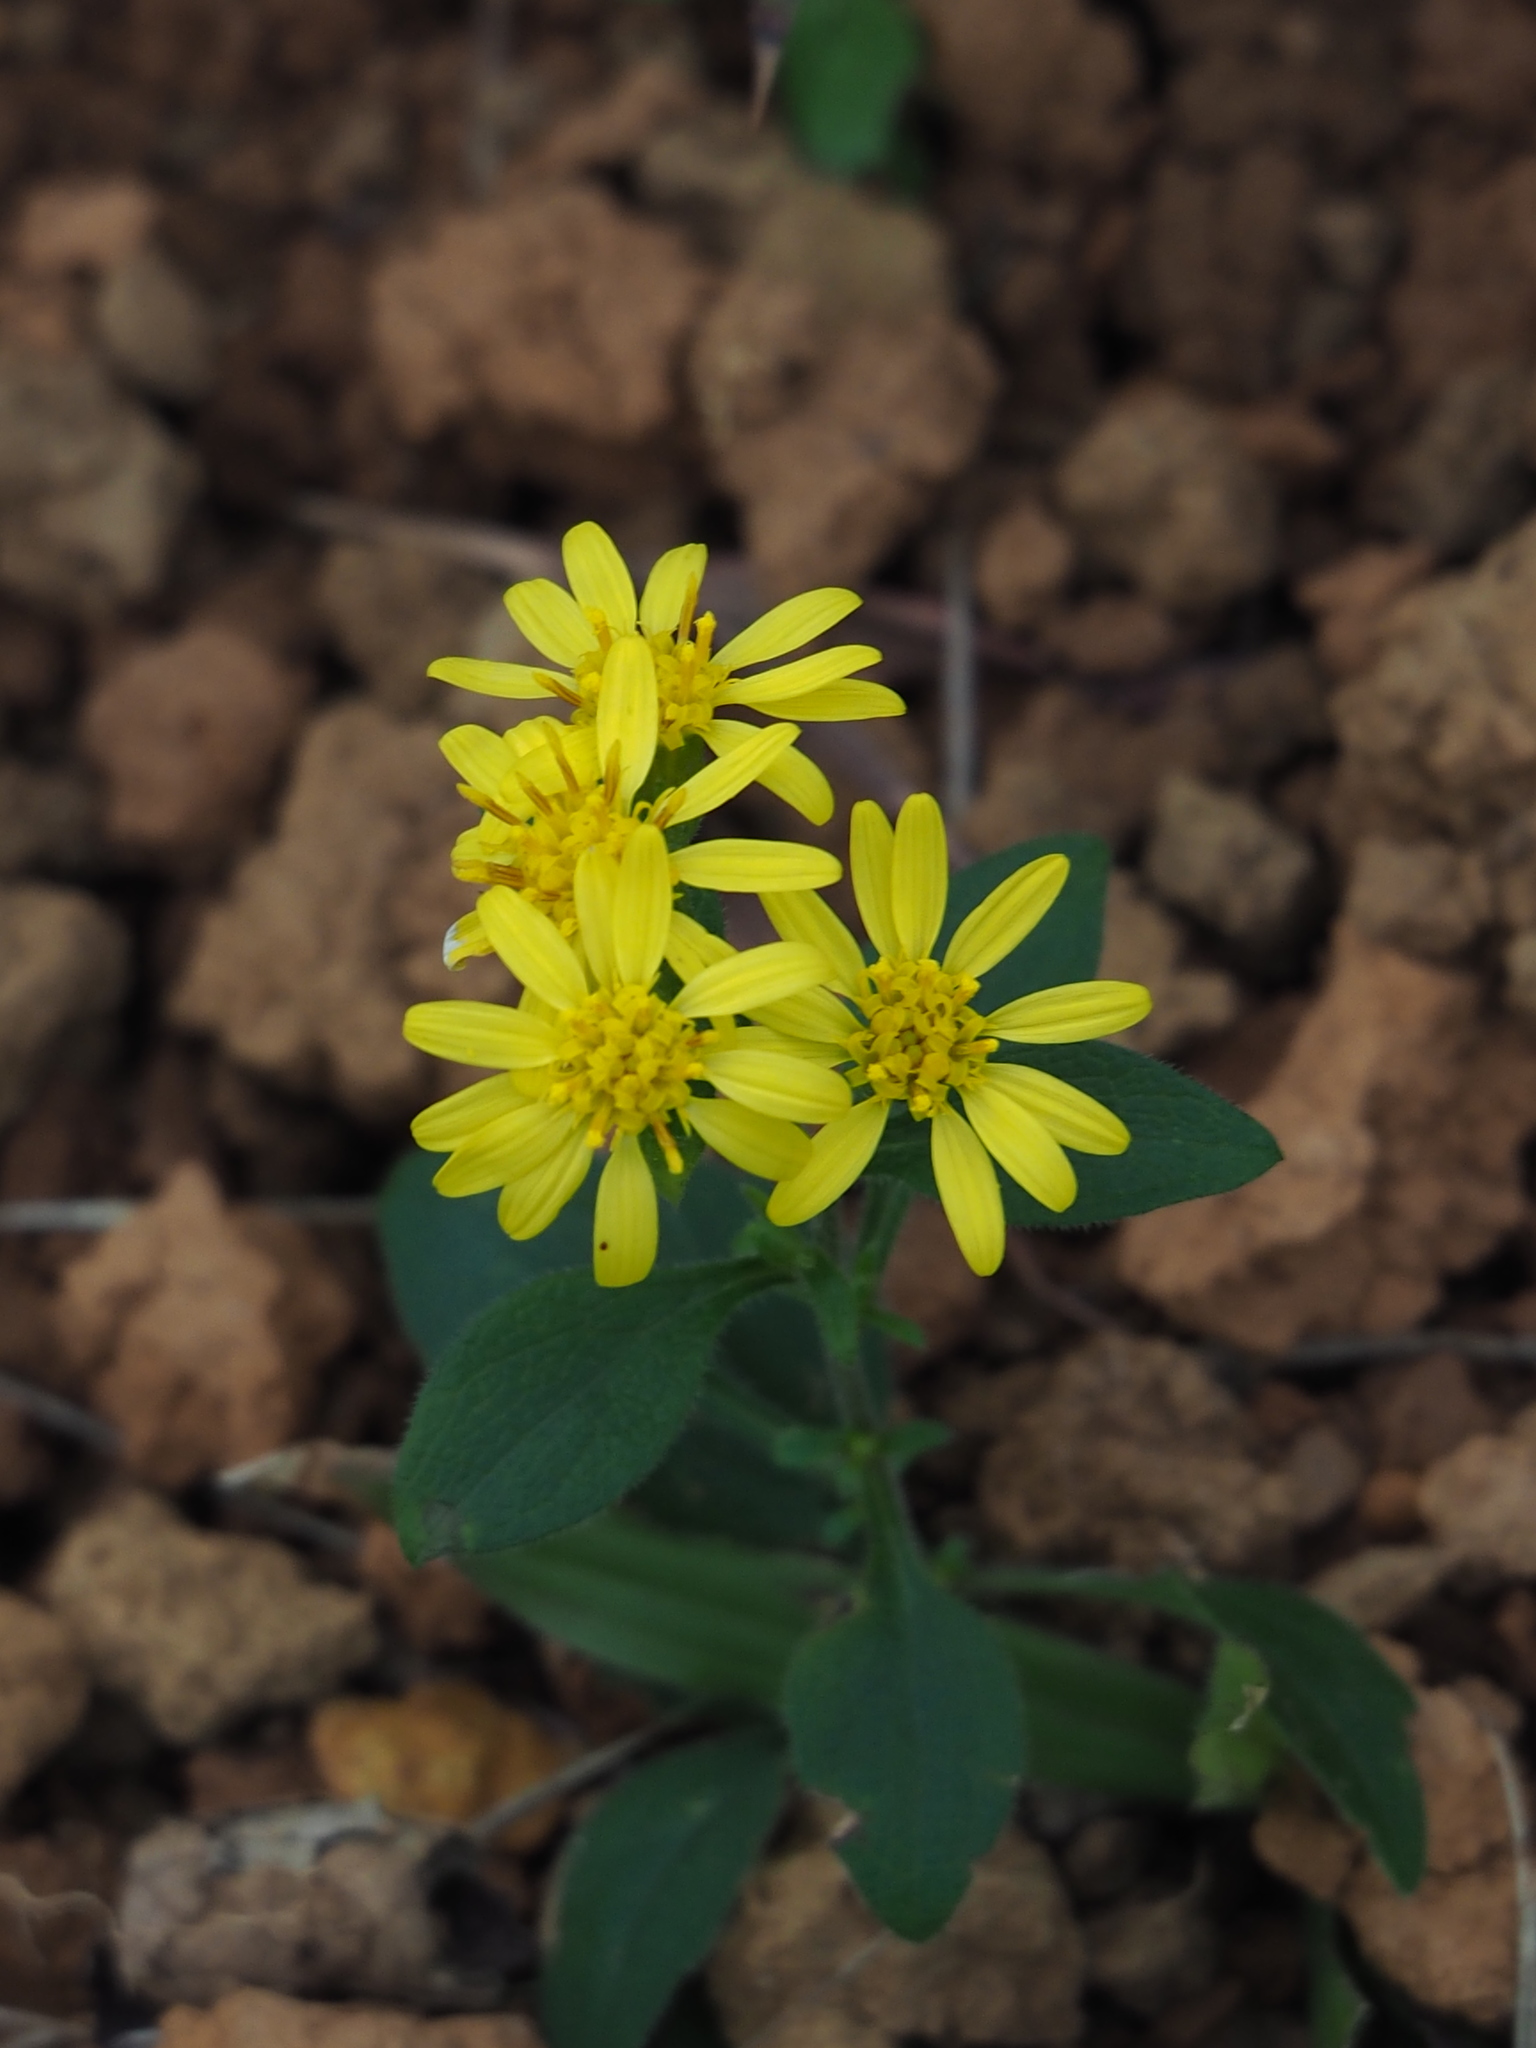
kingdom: Plantae
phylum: Tracheophyta
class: Magnoliopsida
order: Asterales
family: Asteraceae
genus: Solidago
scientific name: Solidago decurrens
